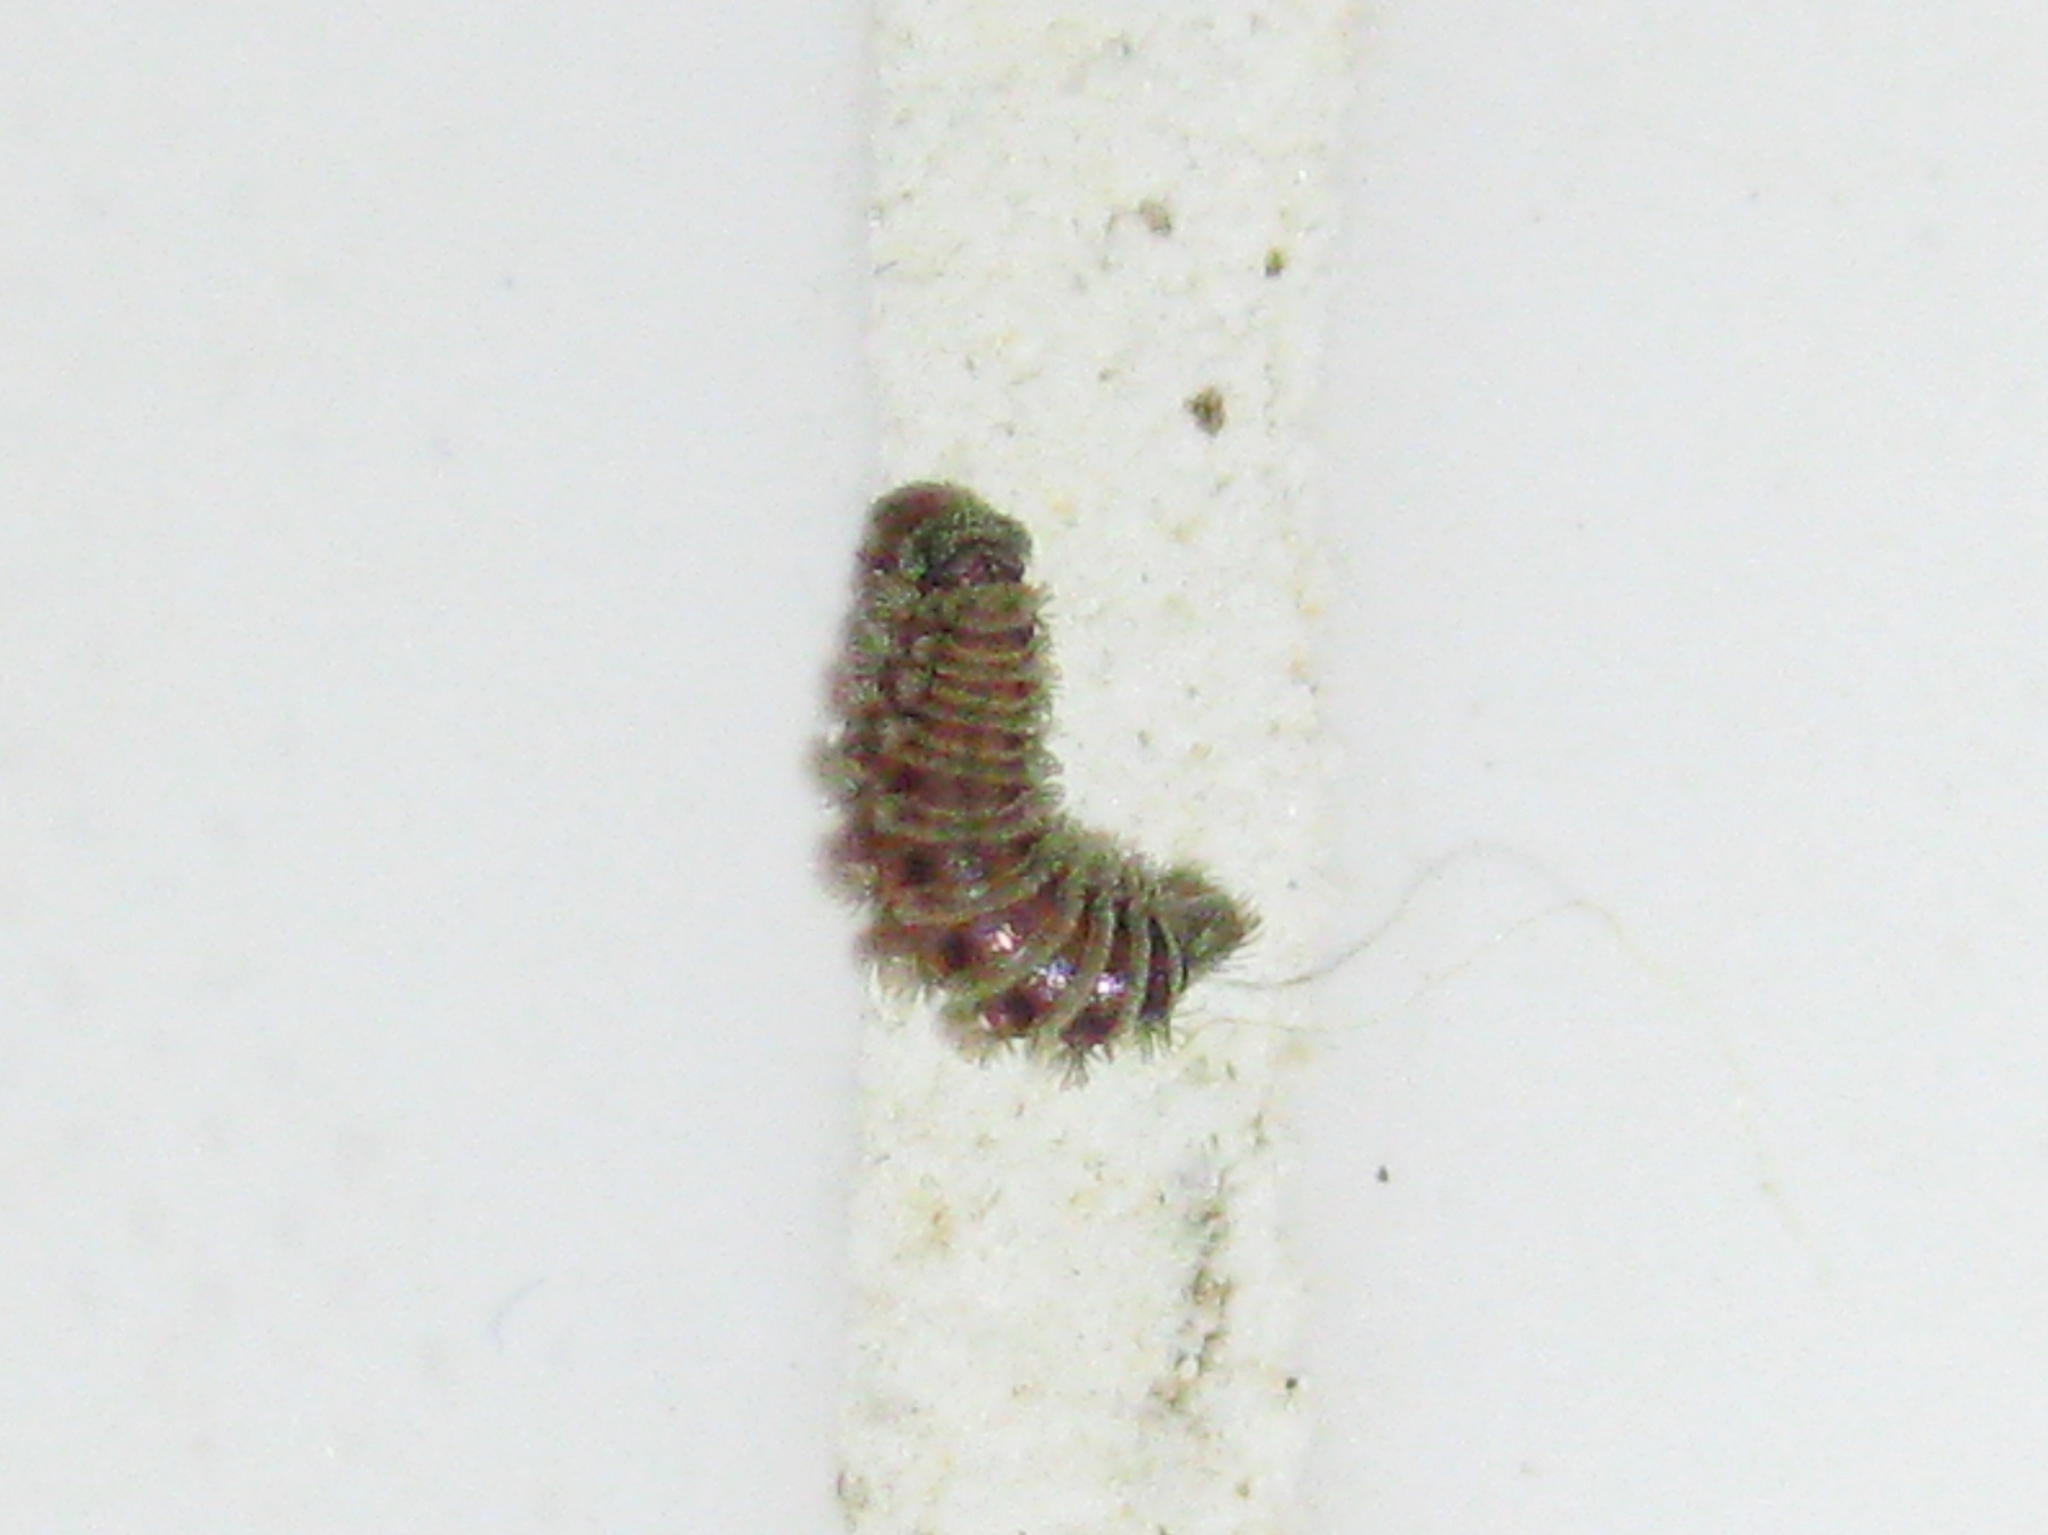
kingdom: Animalia
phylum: Arthropoda
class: Diplopoda
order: Polyxenida
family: Polyxenidae
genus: Polyxenus
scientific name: Polyxenus lagurus
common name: Bristly millipede
